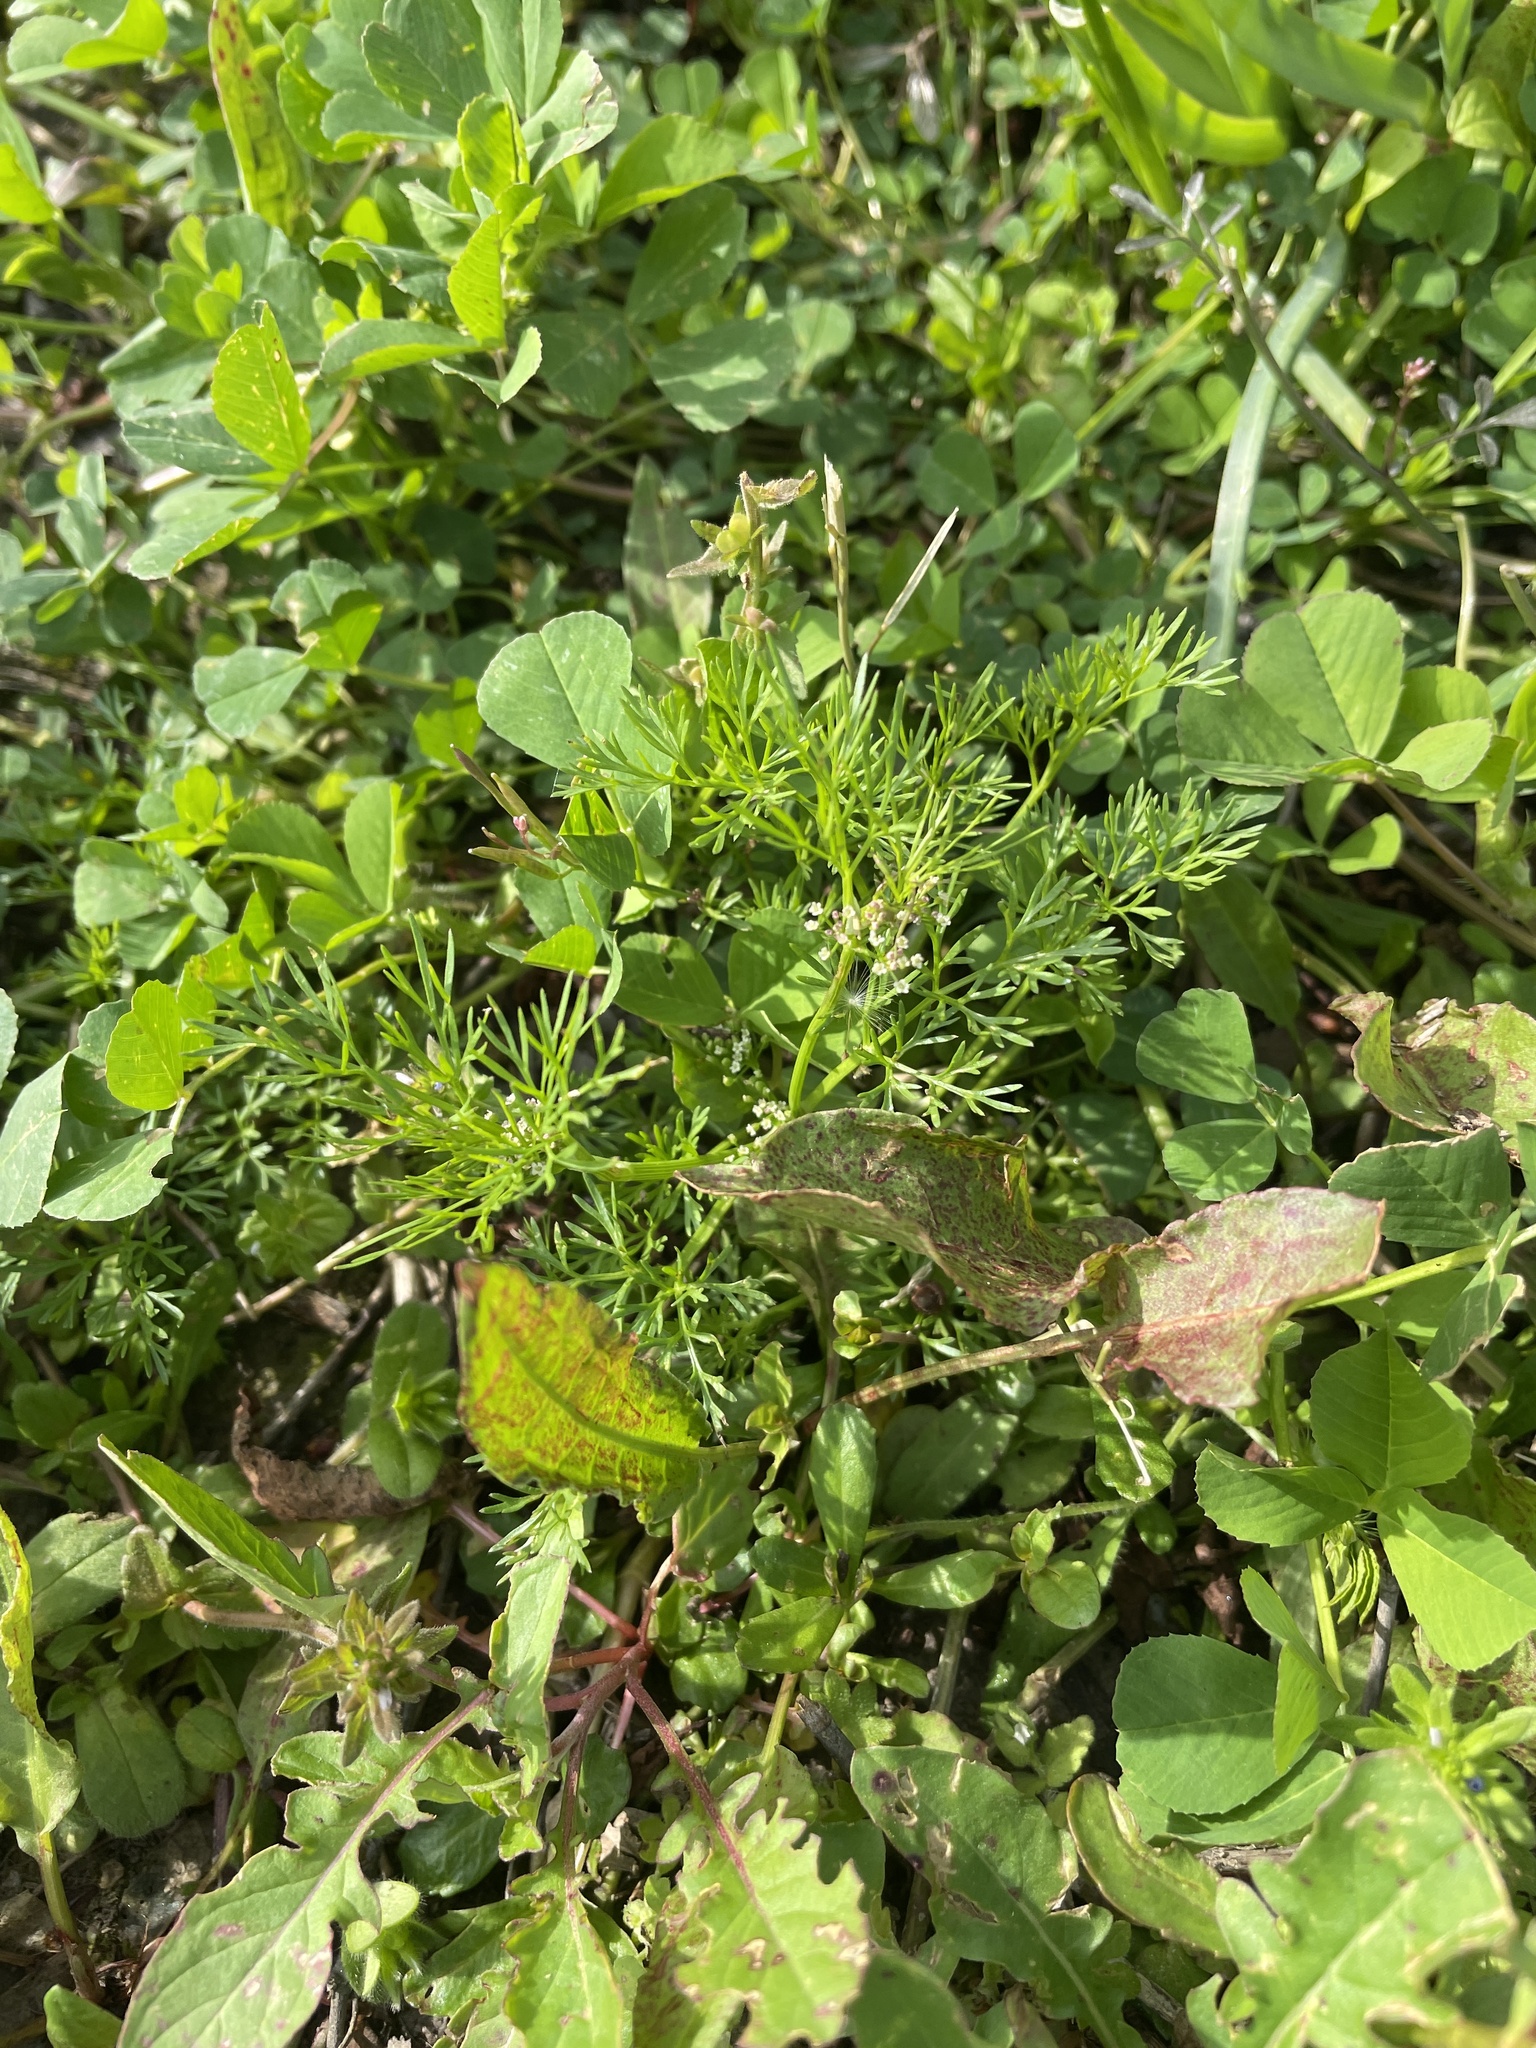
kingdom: Plantae
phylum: Tracheophyta
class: Magnoliopsida
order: Apiales
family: Apiaceae
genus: Cyclospermum
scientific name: Cyclospermum leptophyllum
